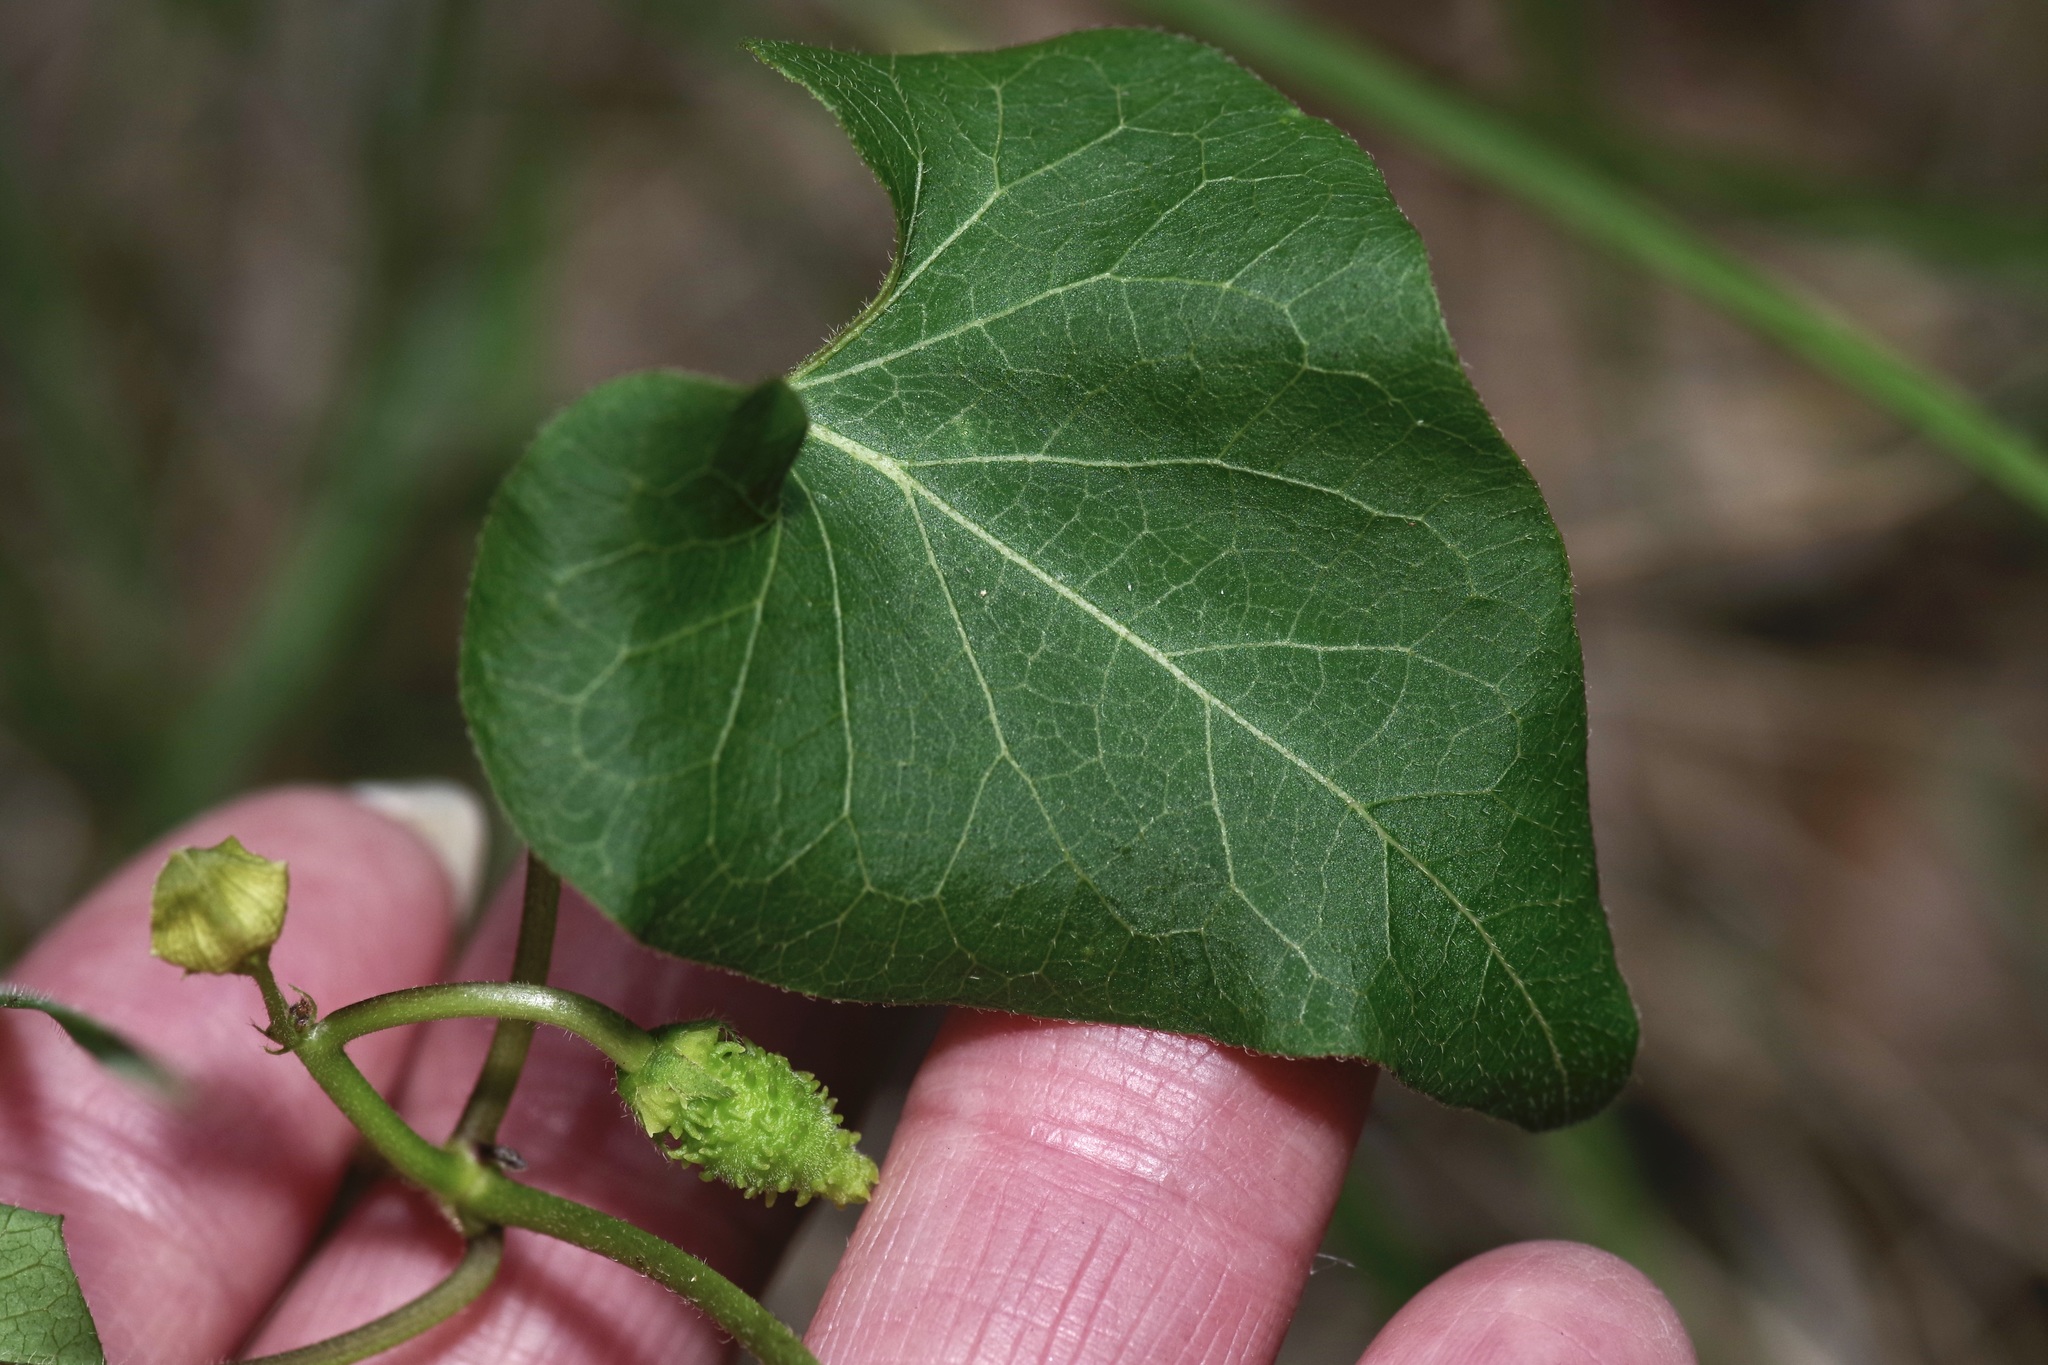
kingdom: Plantae
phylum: Tracheophyta
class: Magnoliopsida
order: Gentianales
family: Apocynaceae
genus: Matelea
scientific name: Matelea edwardsensis
